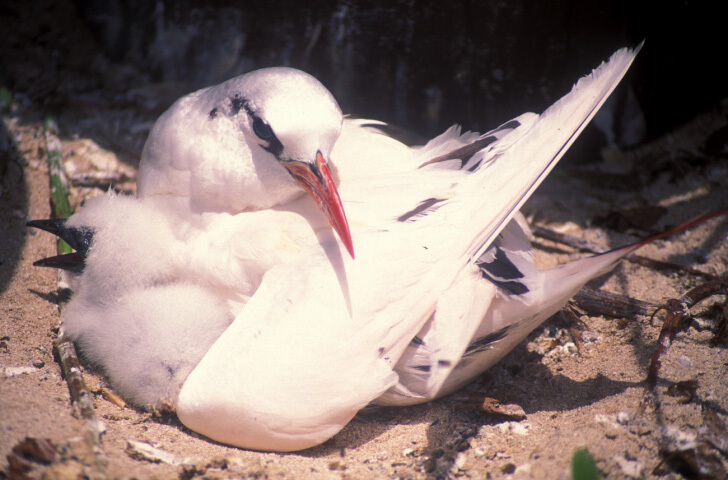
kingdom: Animalia
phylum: Chordata
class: Aves
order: Phaethontiformes
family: Phaethontidae
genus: Phaethon
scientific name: Phaethon rubricauda
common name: Red-tailed tropicbird
